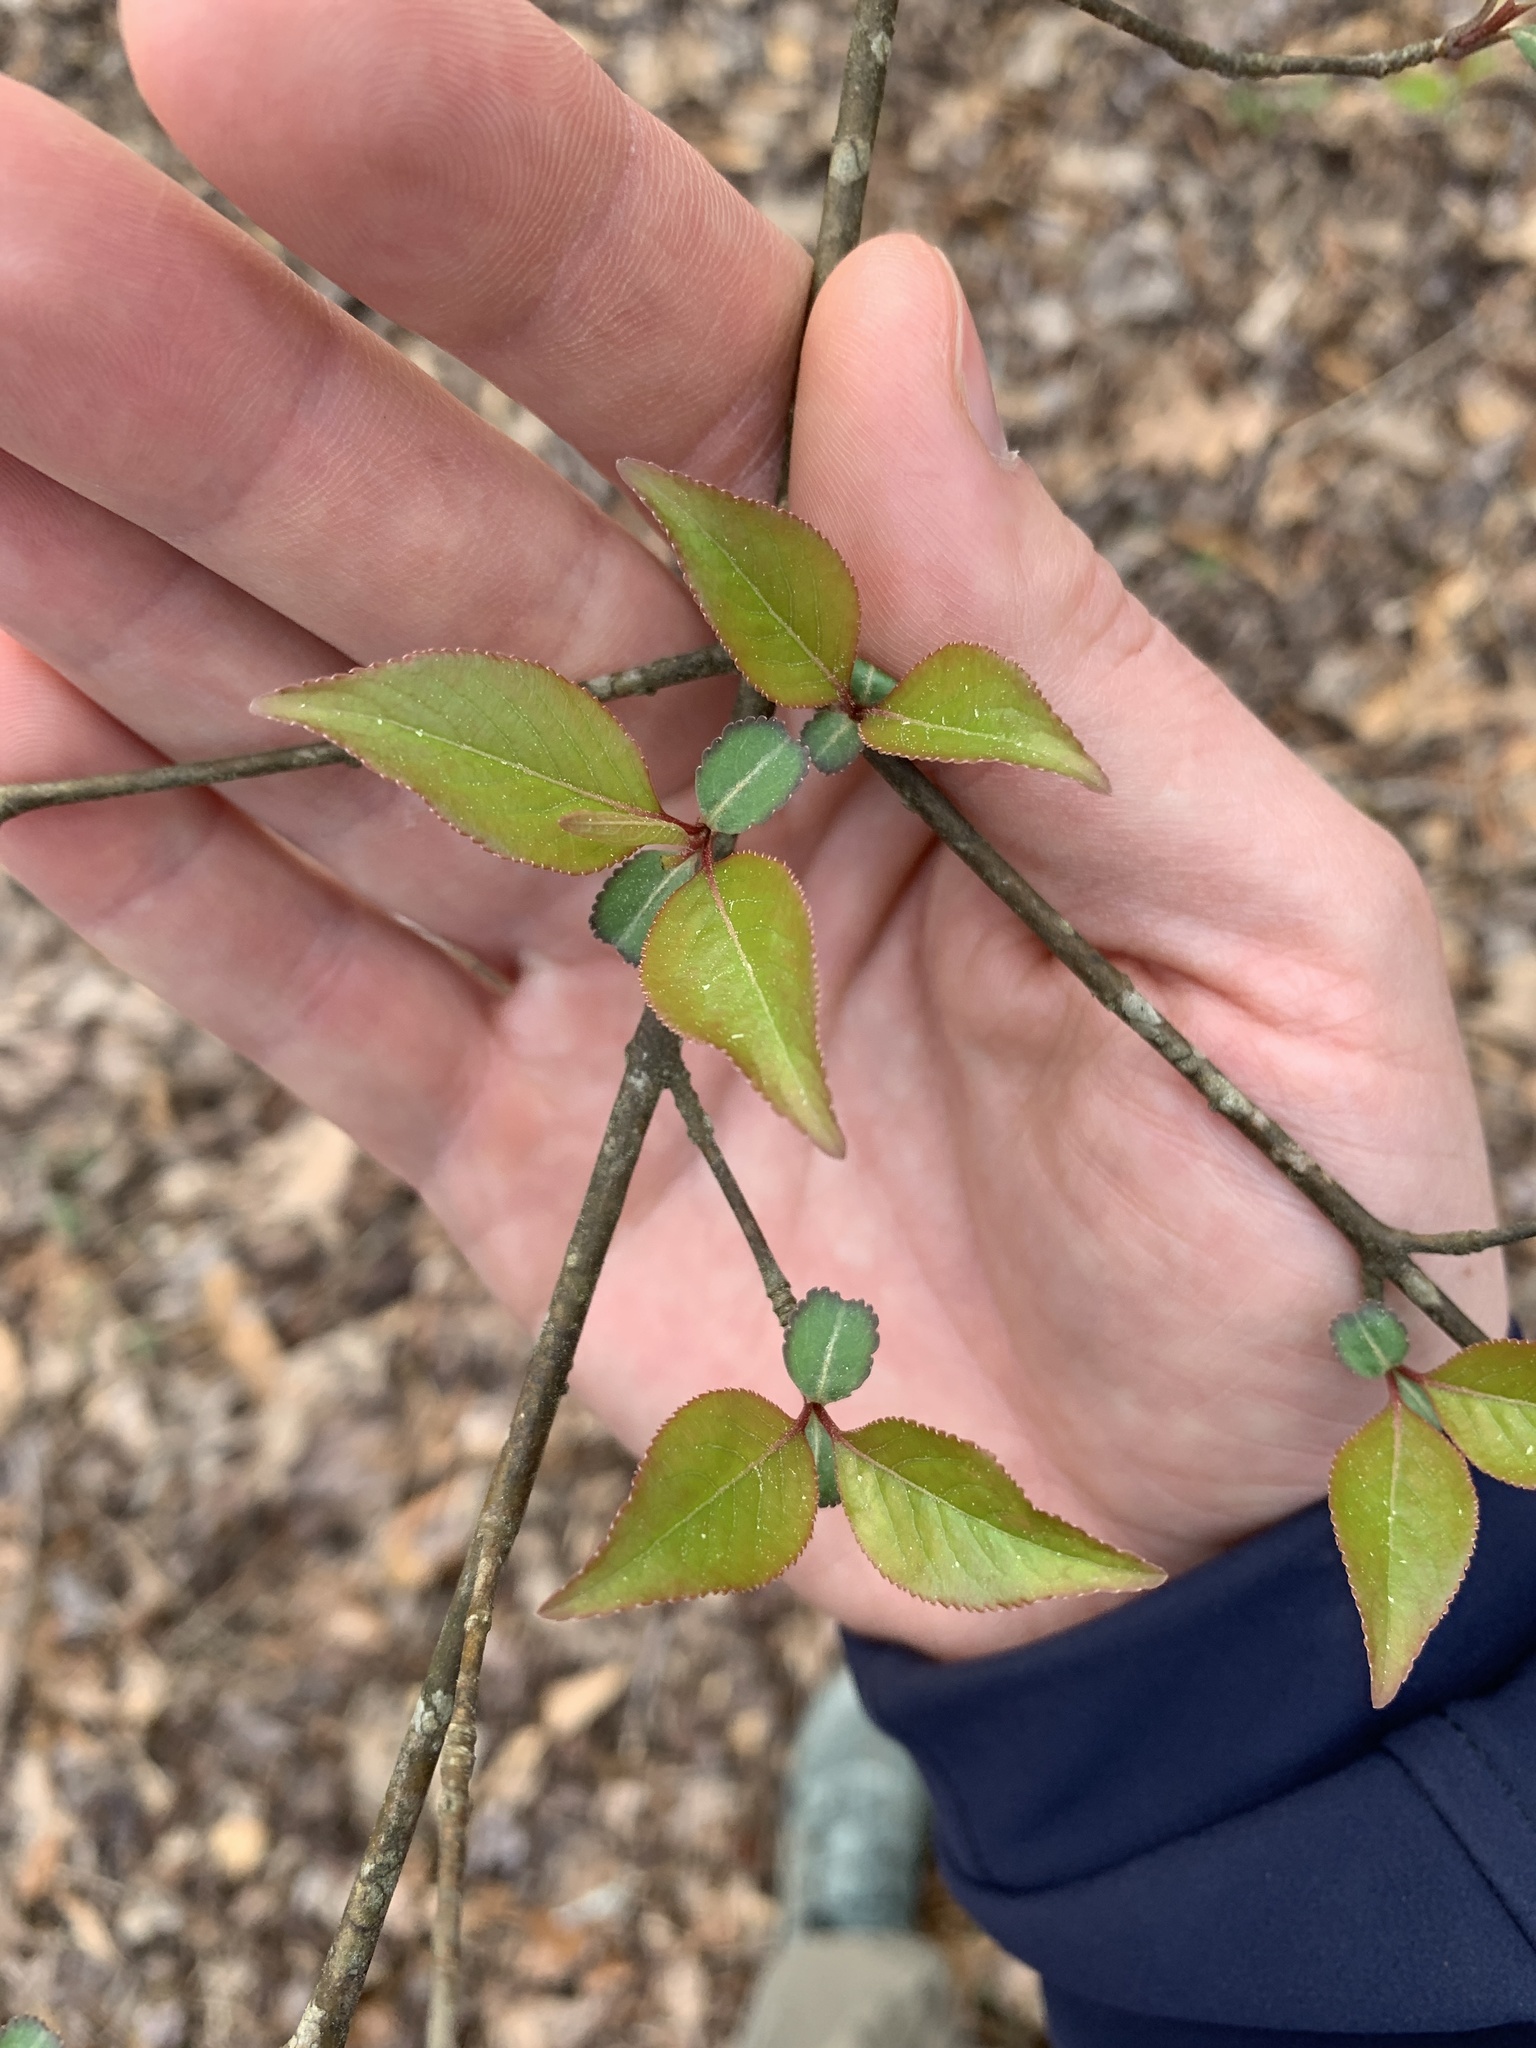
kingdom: Plantae
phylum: Tracheophyta
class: Magnoliopsida
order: Dipsacales
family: Viburnaceae
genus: Viburnum
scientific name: Viburnum prunifolium
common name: Black haw
